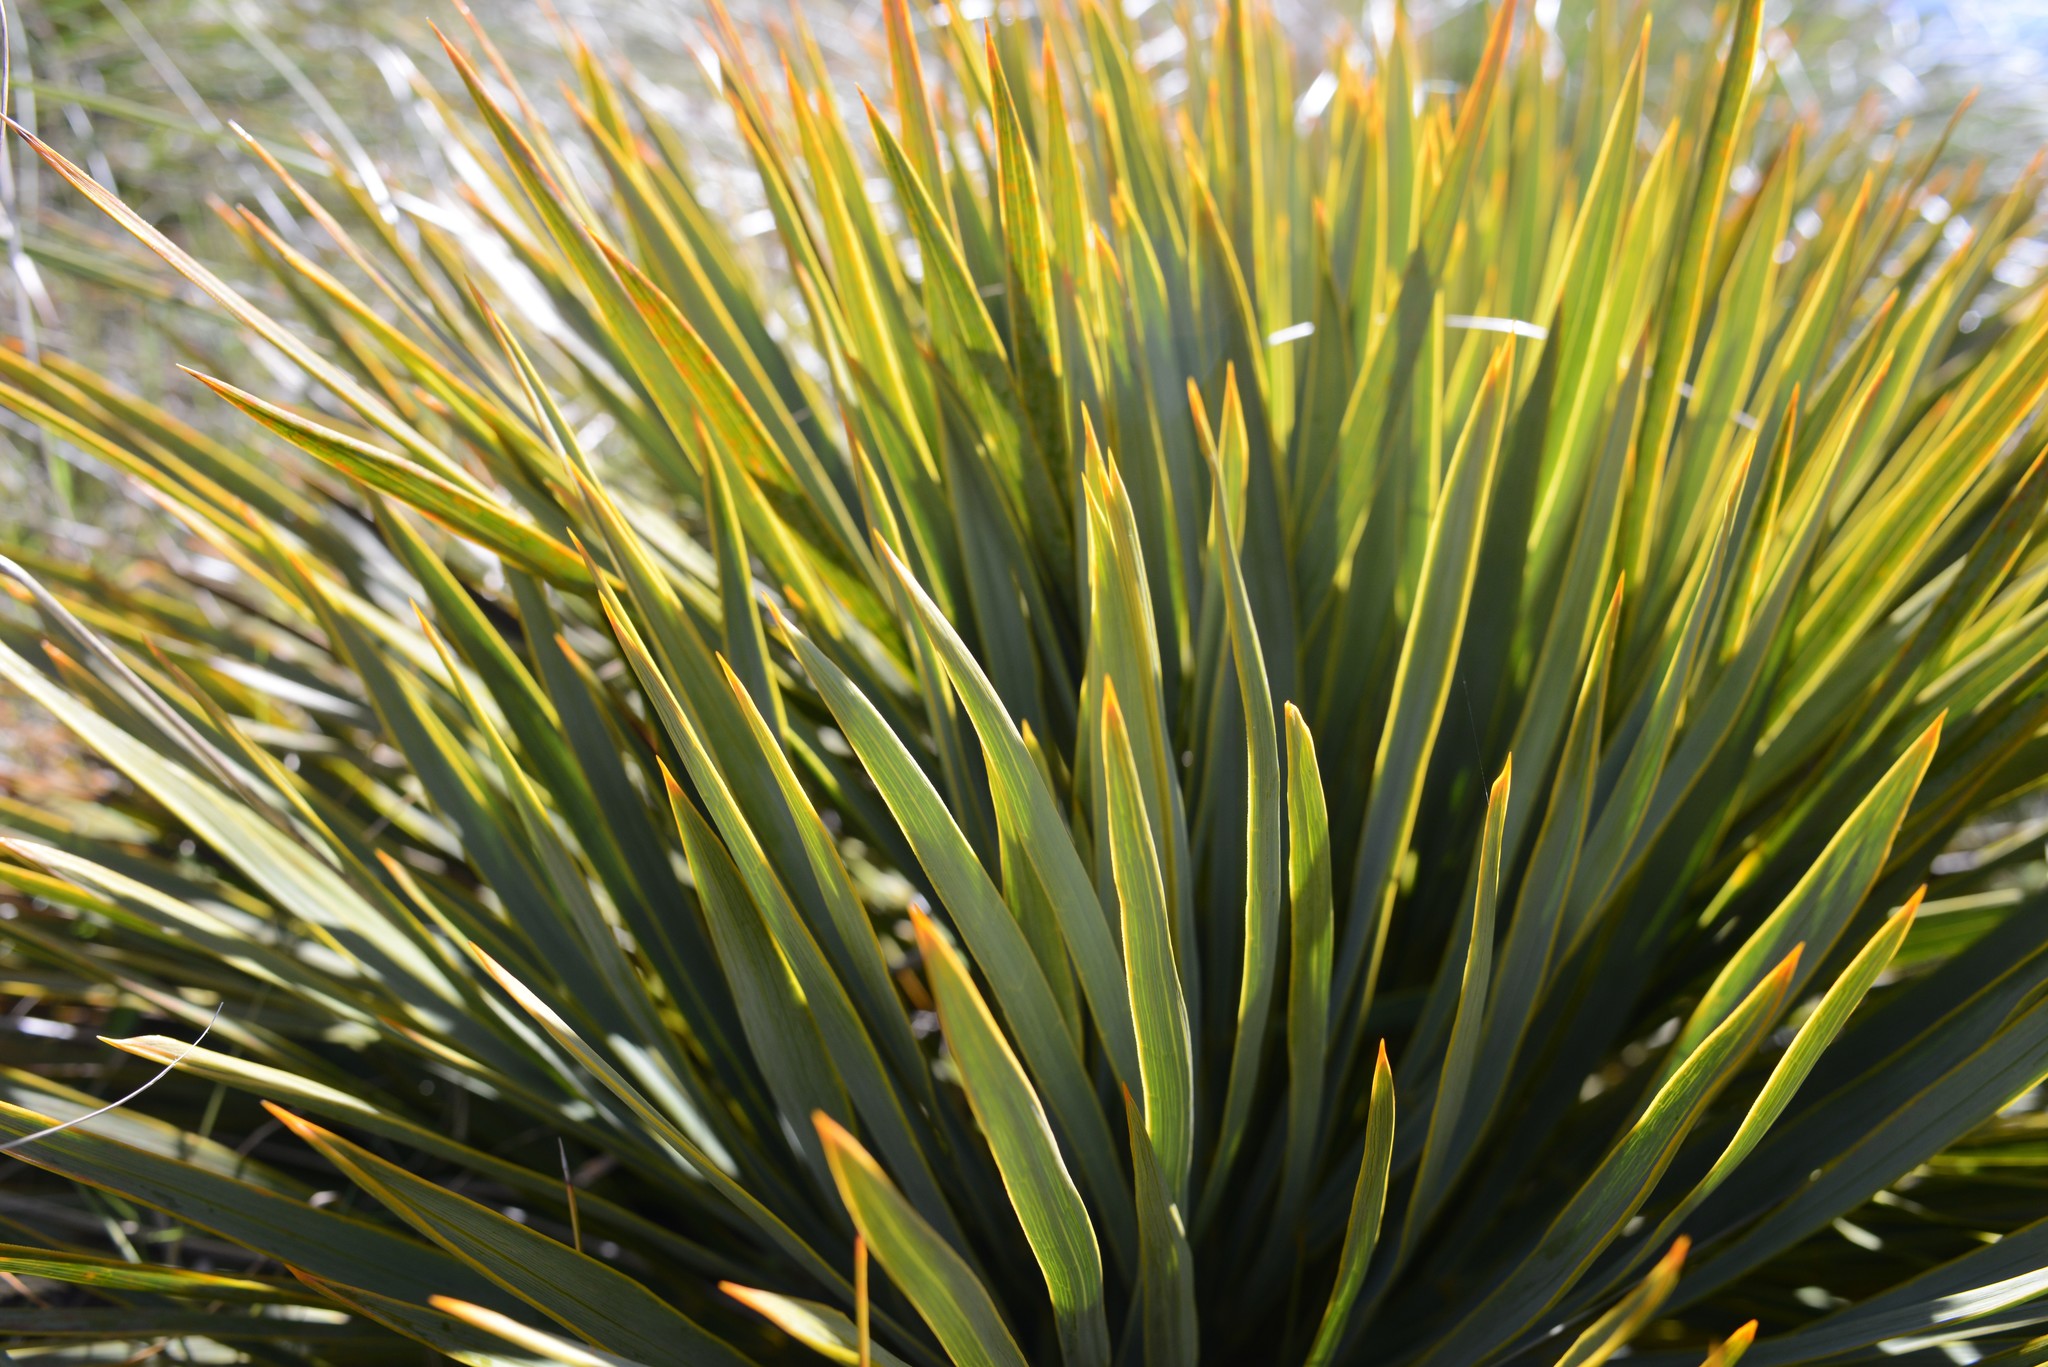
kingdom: Plantae
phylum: Tracheophyta
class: Magnoliopsida
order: Apiales
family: Apiaceae
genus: Aciphylla
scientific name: Aciphylla aurea
